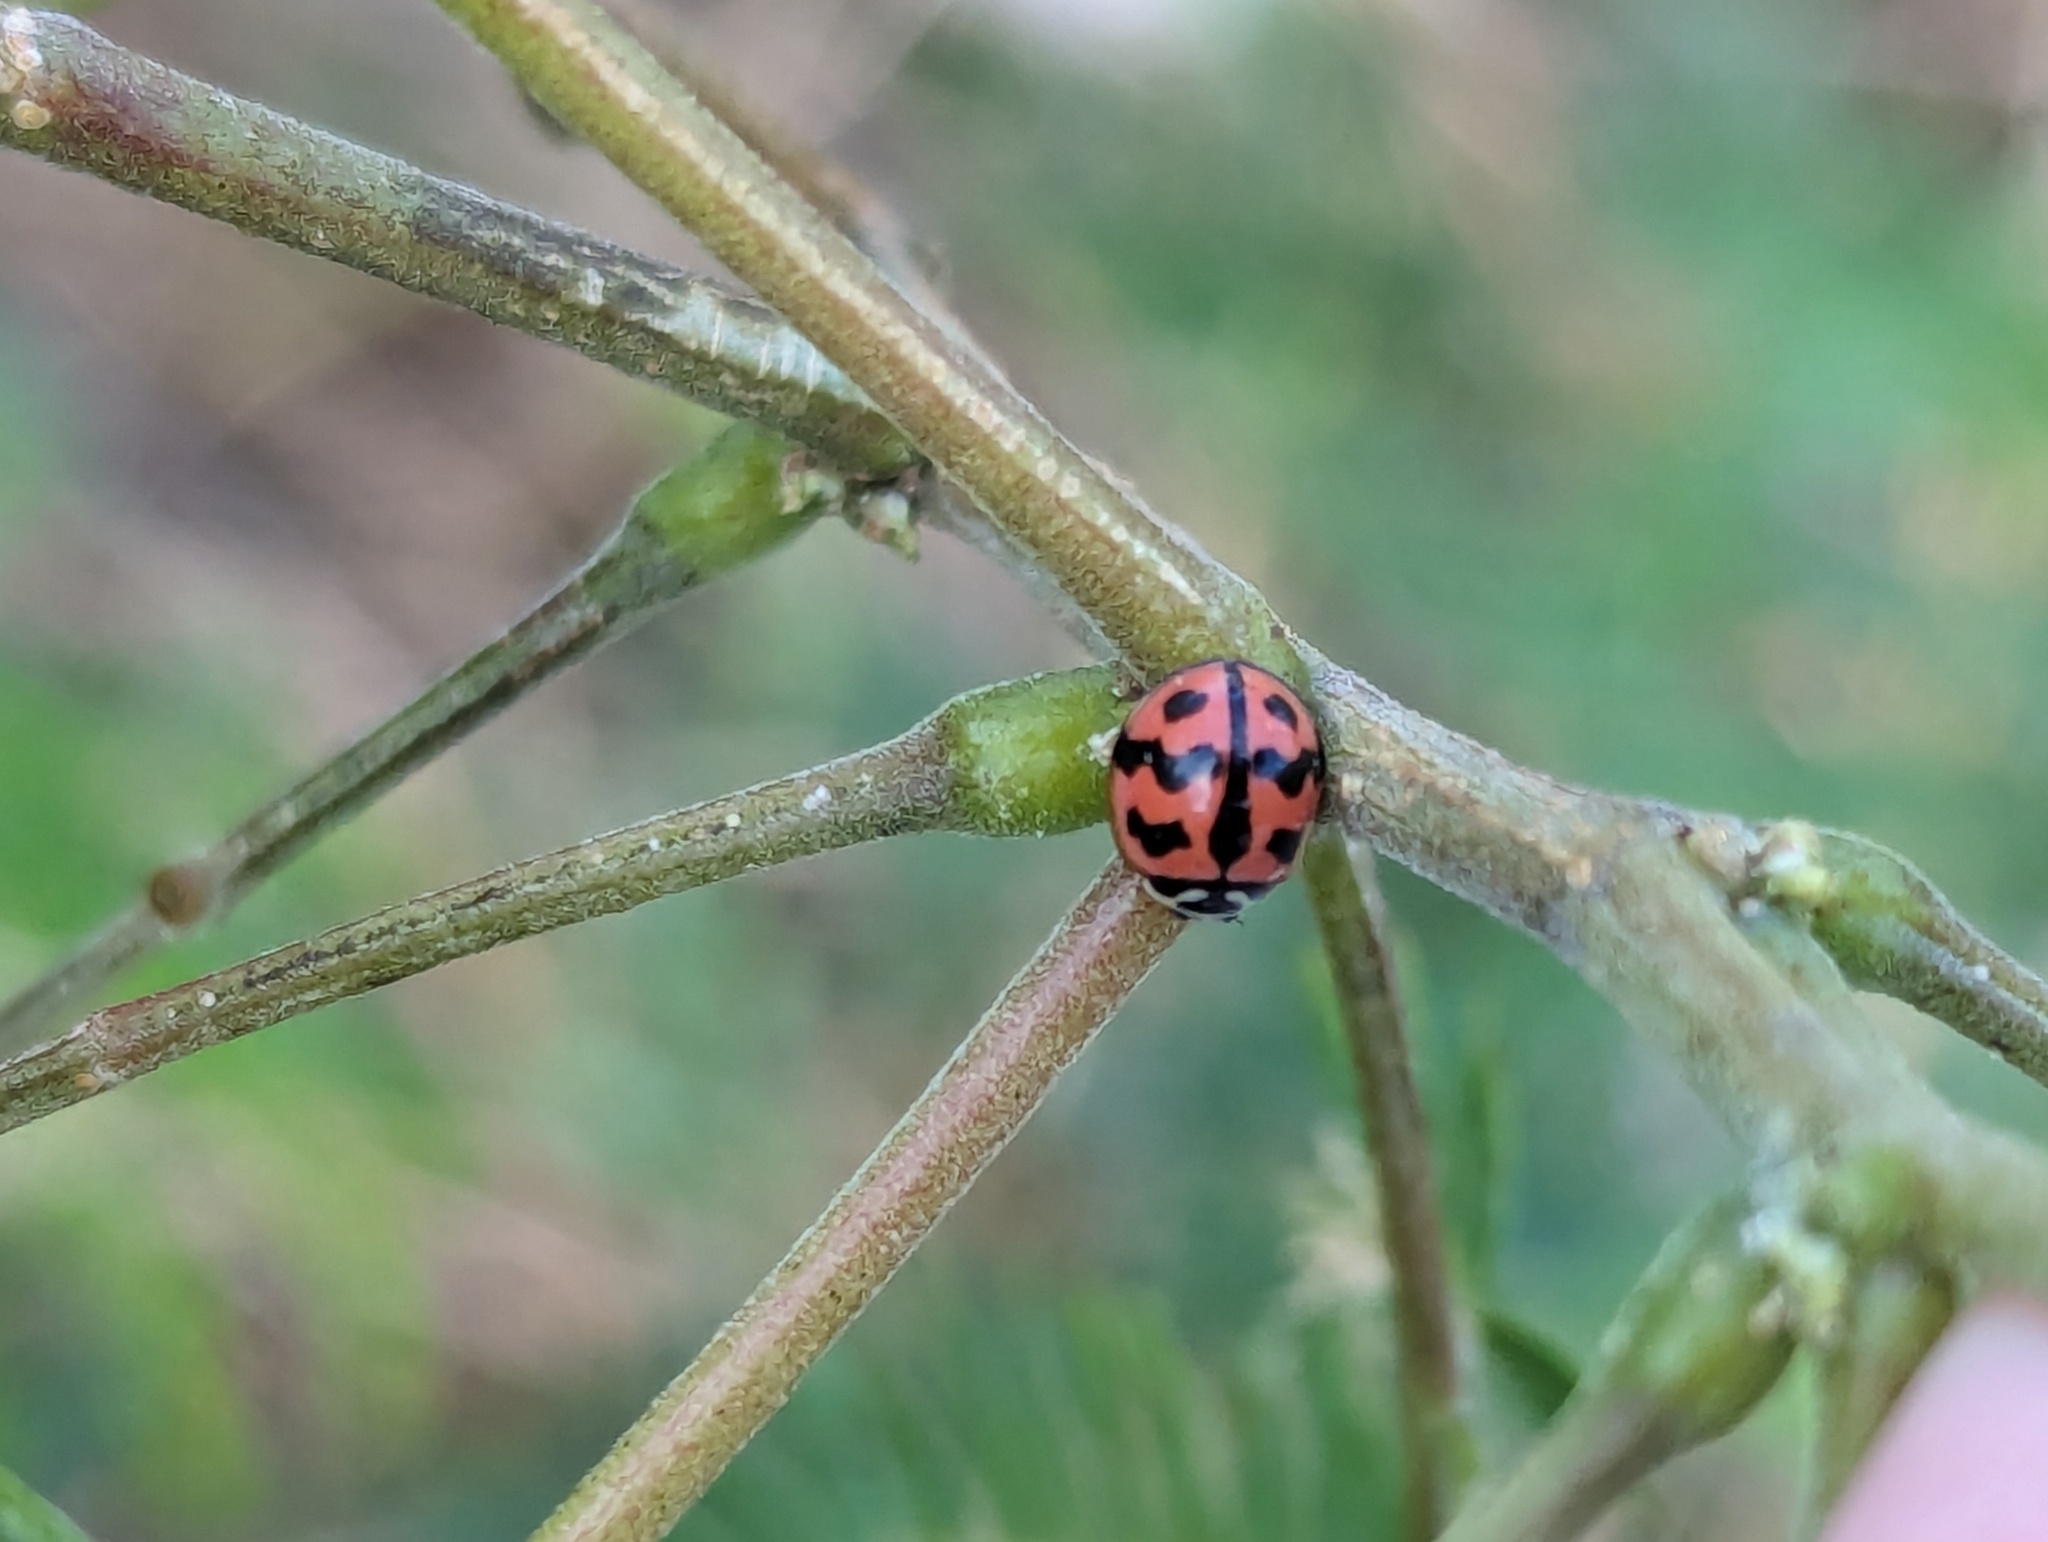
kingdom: Animalia
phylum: Arthropoda
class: Insecta
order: Coleoptera
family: Coccinellidae
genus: Cheilomenes
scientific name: Cheilomenes sexmaculata
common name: Ladybird beetle
